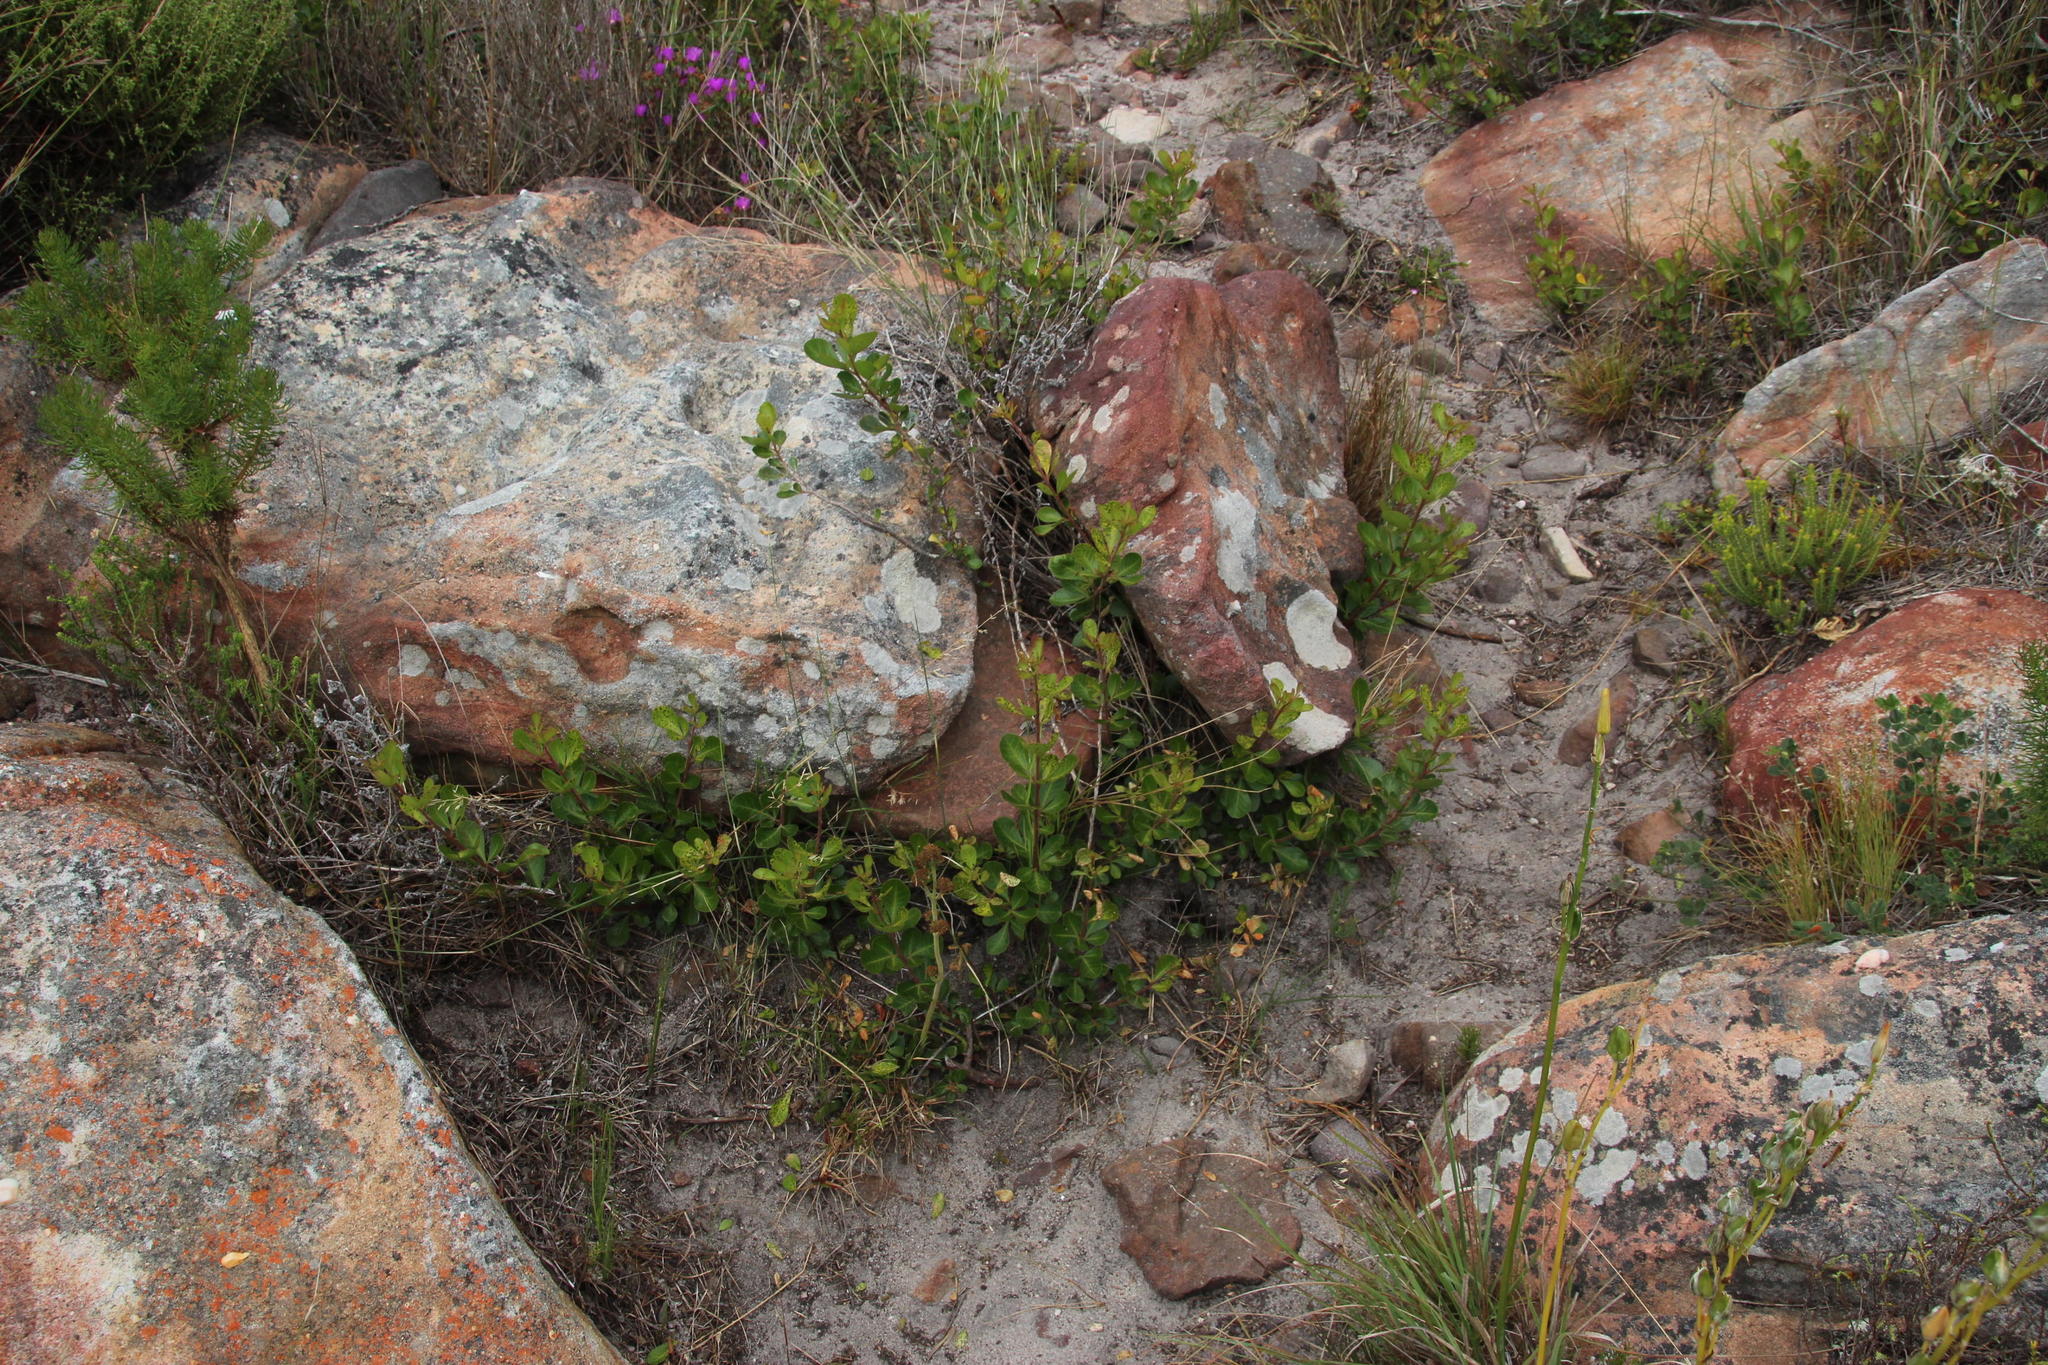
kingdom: Plantae
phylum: Tracheophyta
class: Magnoliopsida
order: Sapindales
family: Anacardiaceae
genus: Searsia
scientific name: Searsia lucida
